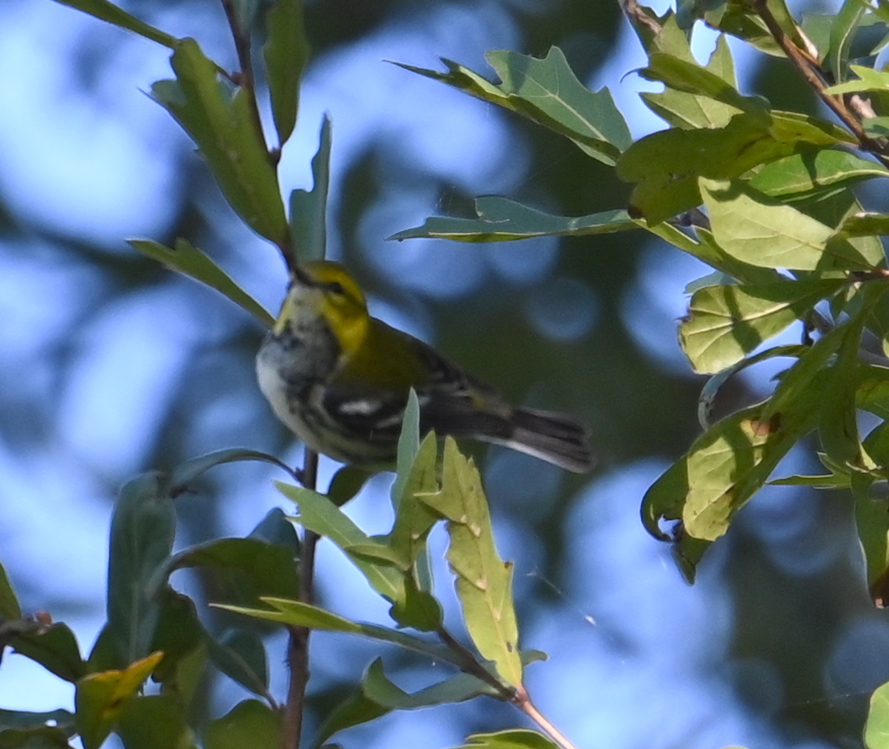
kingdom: Animalia
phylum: Chordata
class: Aves
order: Passeriformes
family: Parulidae
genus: Setophaga
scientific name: Setophaga virens
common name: Black-throated green warbler
